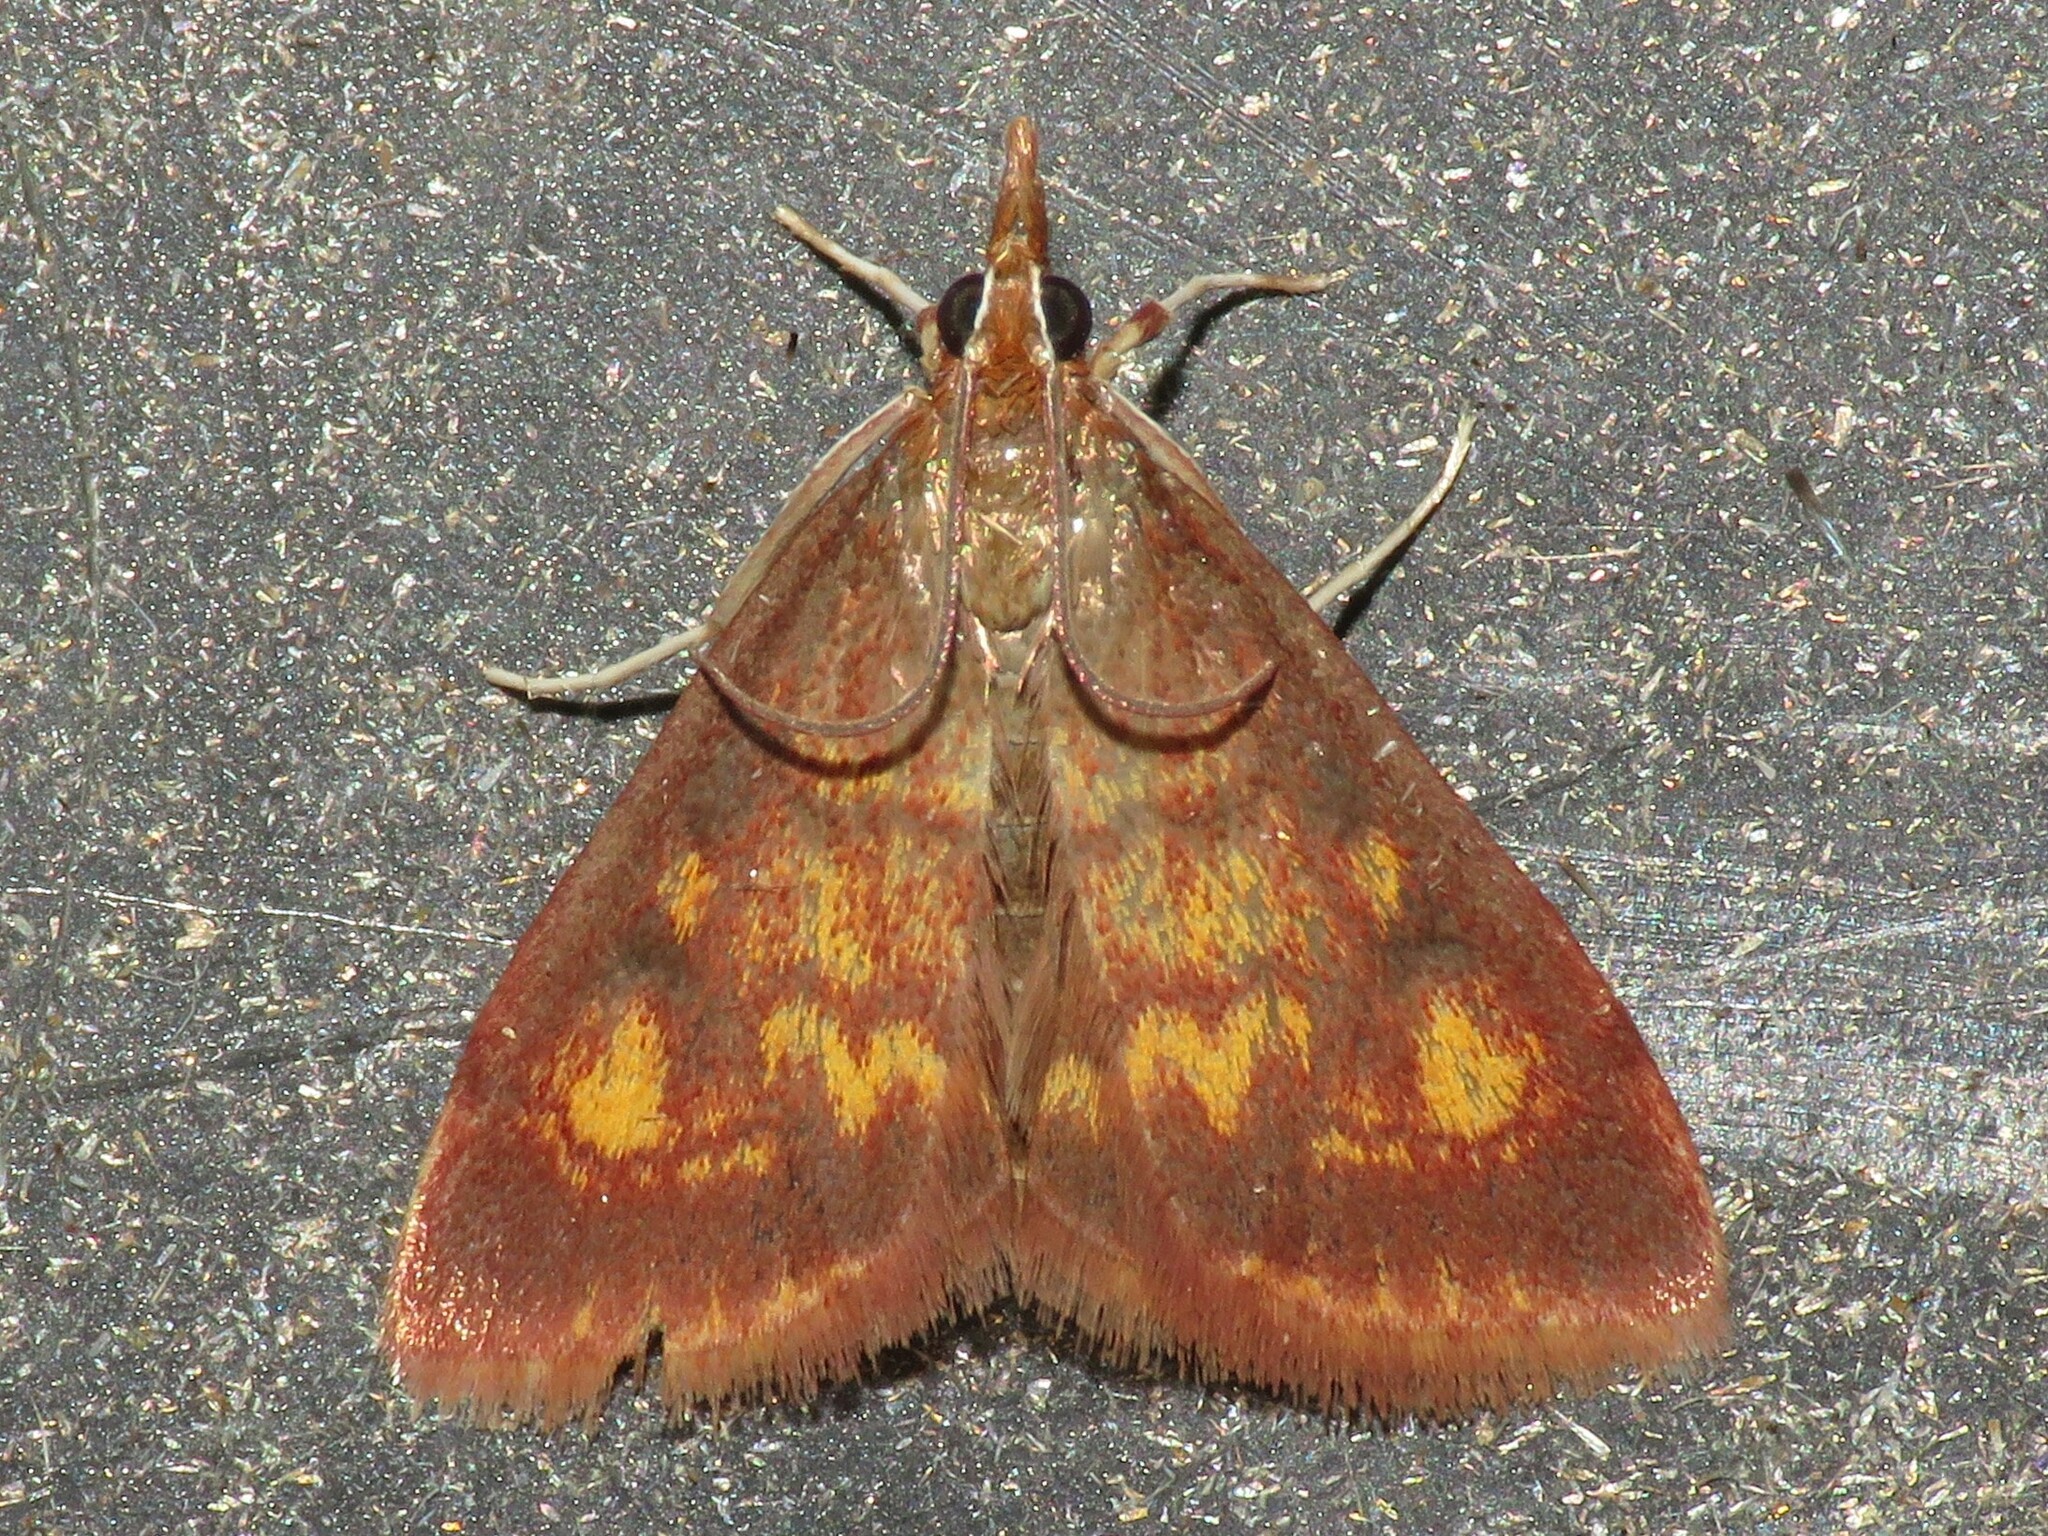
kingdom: Animalia
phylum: Arthropoda
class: Insecta
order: Lepidoptera
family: Crambidae
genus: Pyrausta
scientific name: Pyrausta acrionalis
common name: Mint-loving pyrausta moth
